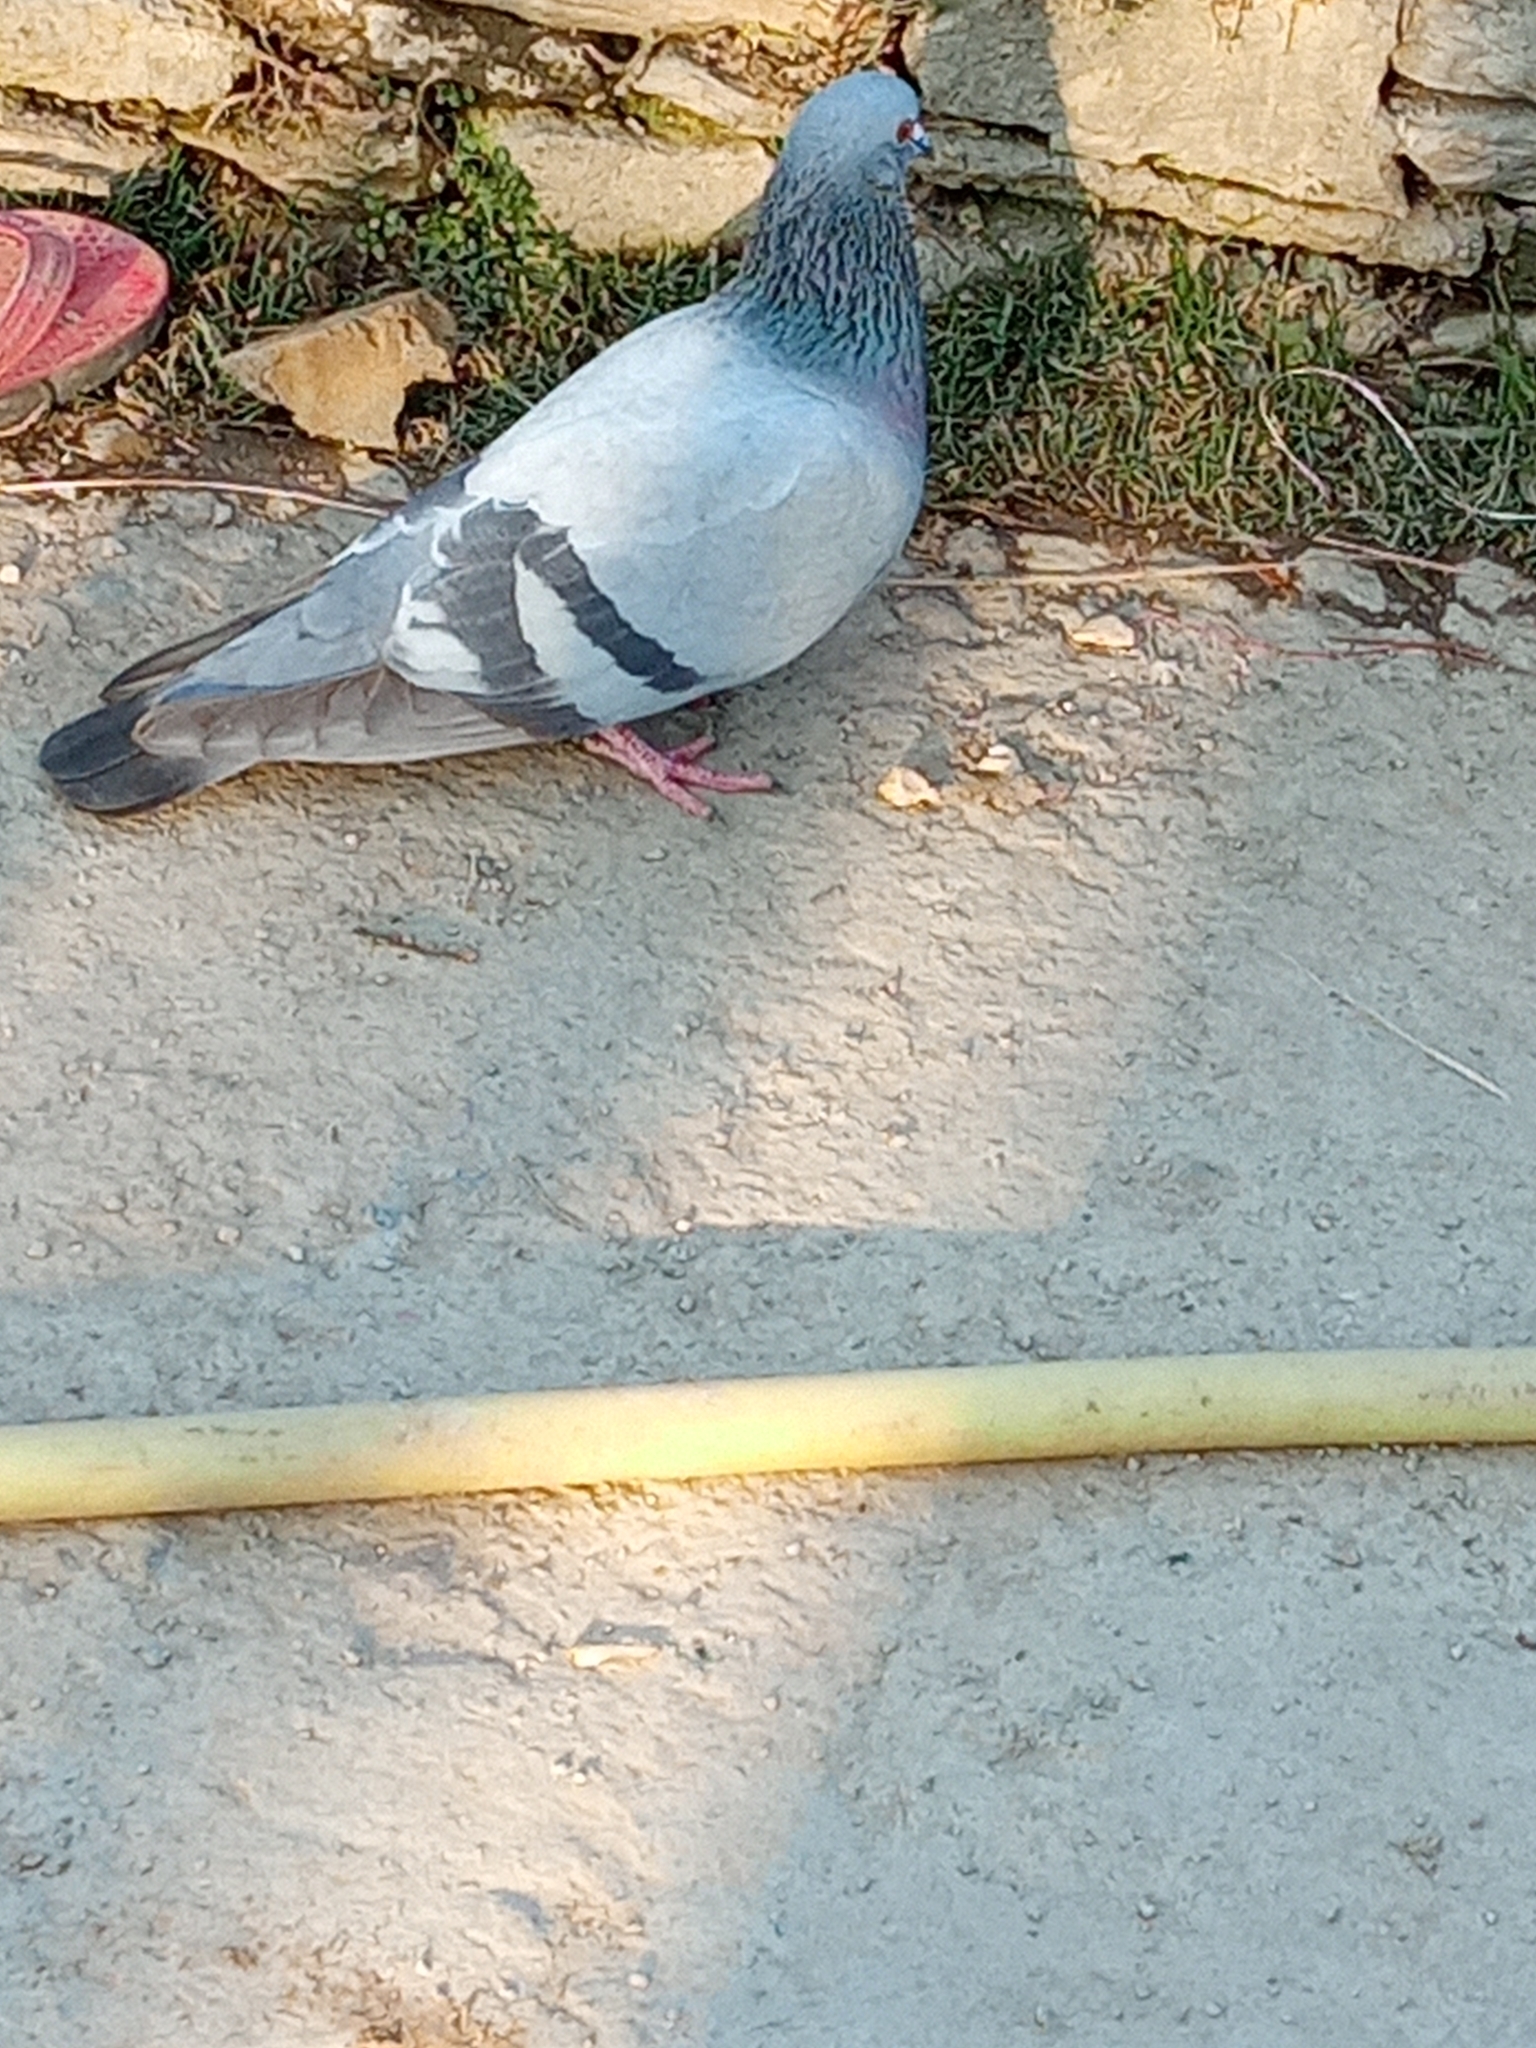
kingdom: Animalia
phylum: Chordata
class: Aves
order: Columbiformes
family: Columbidae
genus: Columba
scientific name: Columba livia
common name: Rock pigeon
